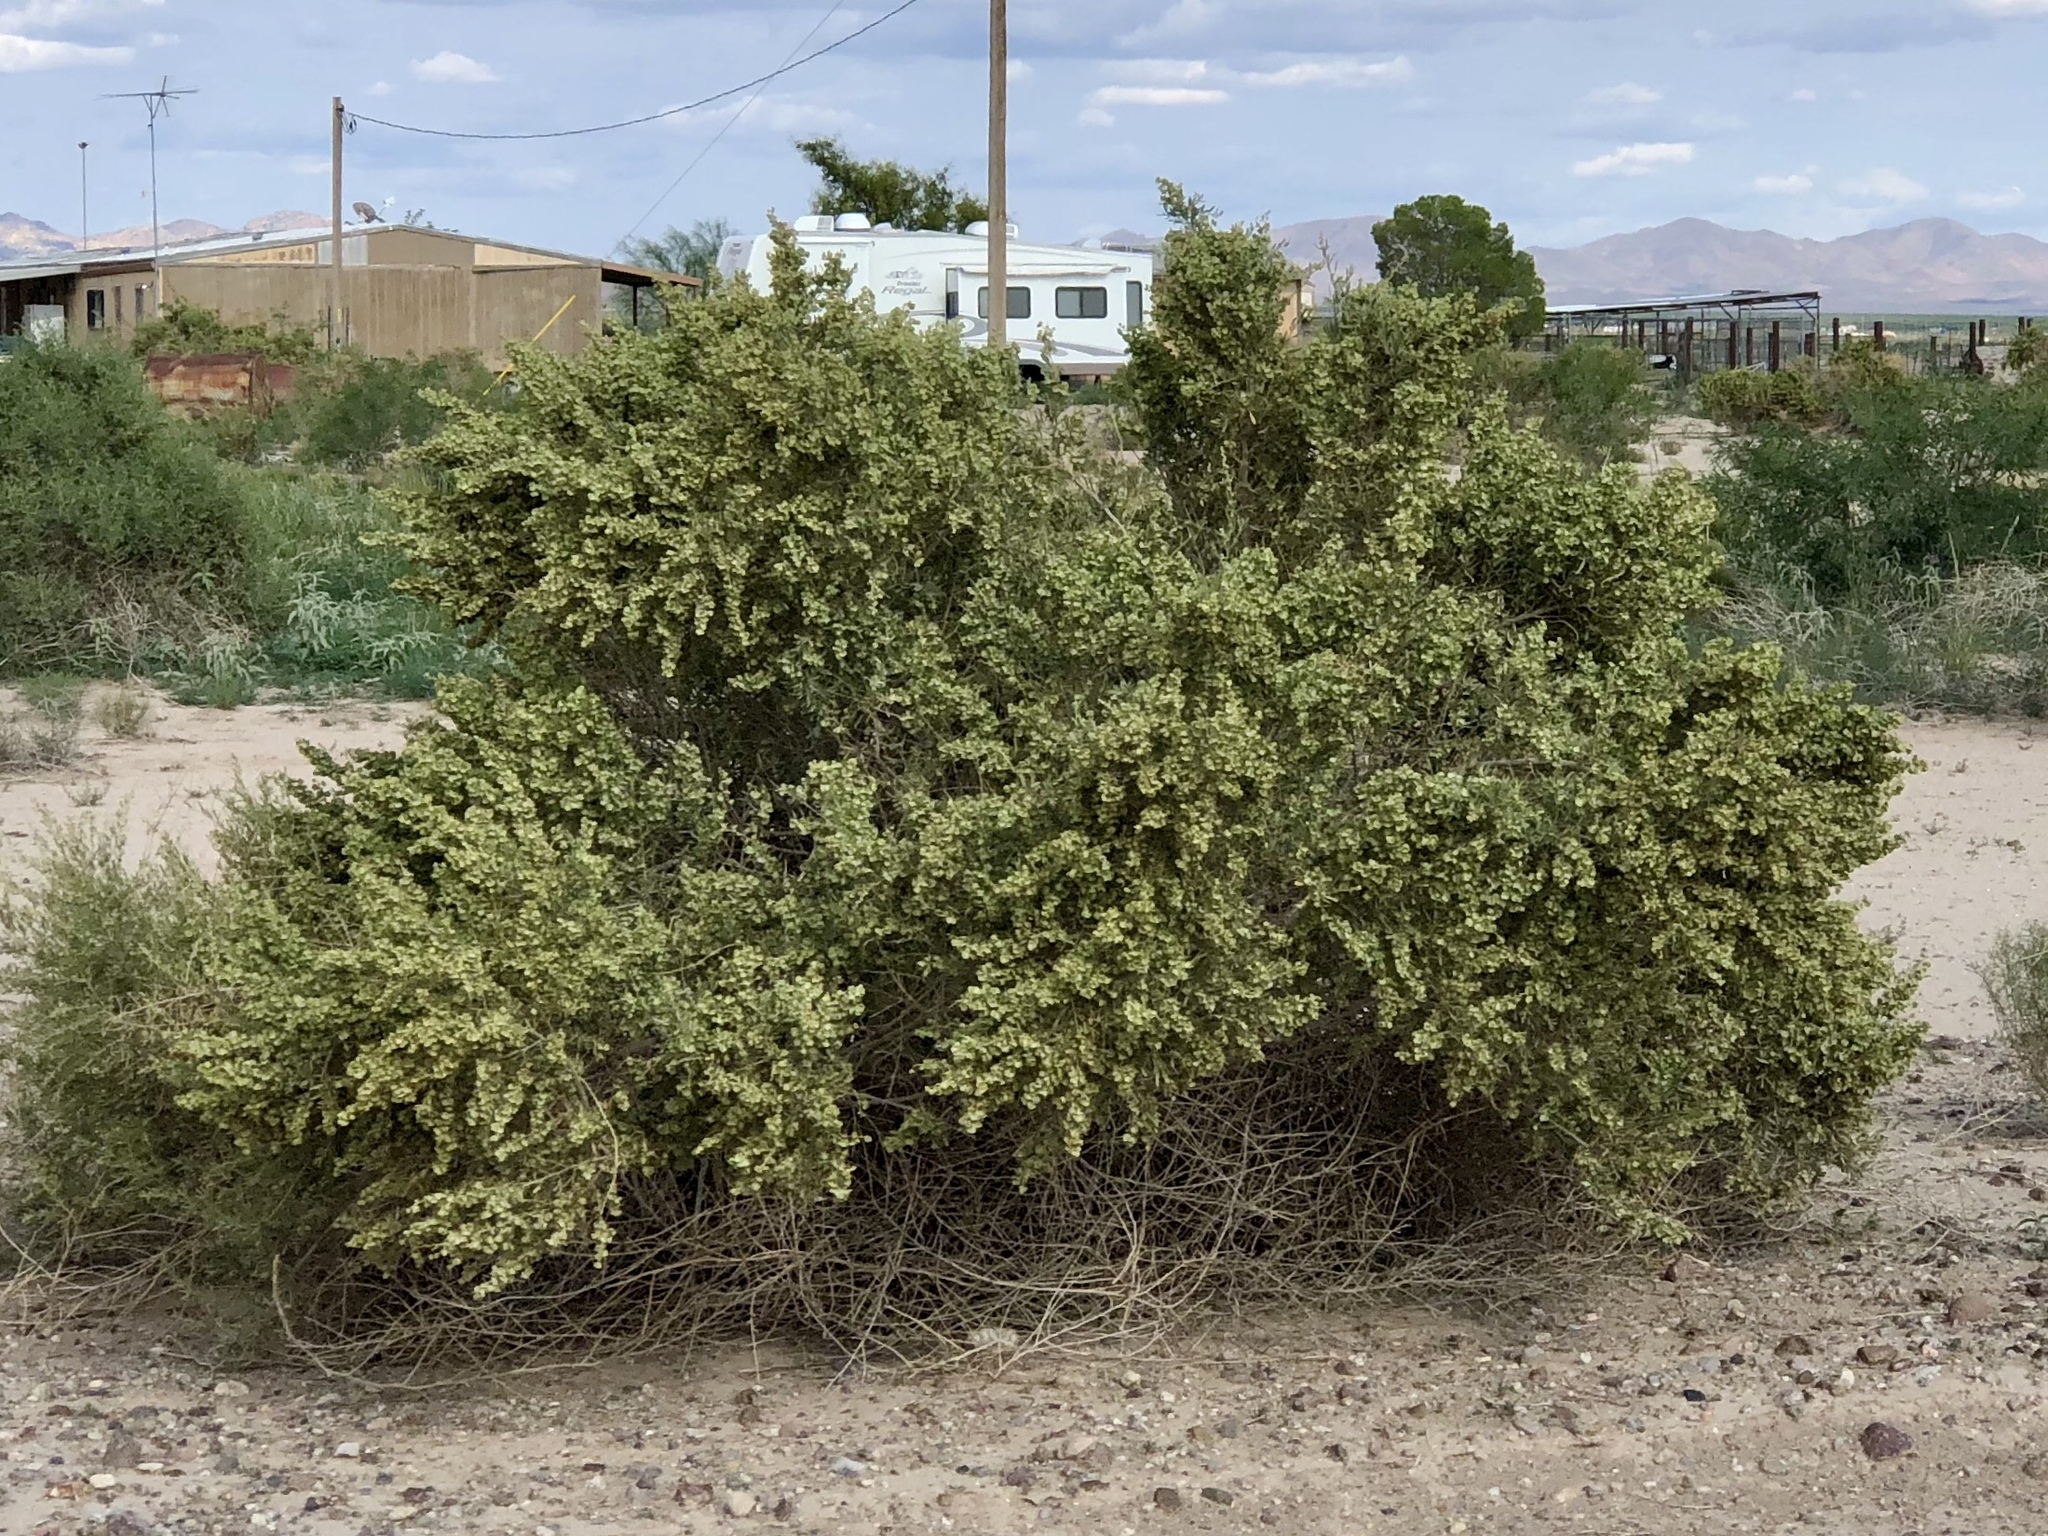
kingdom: Plantae
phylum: Tracheophyta
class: Magnoliopsida
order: Caryophyllales
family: Amaranthaceae
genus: Atriplex
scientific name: Atriplex canescens
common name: Four-wing saltbush
